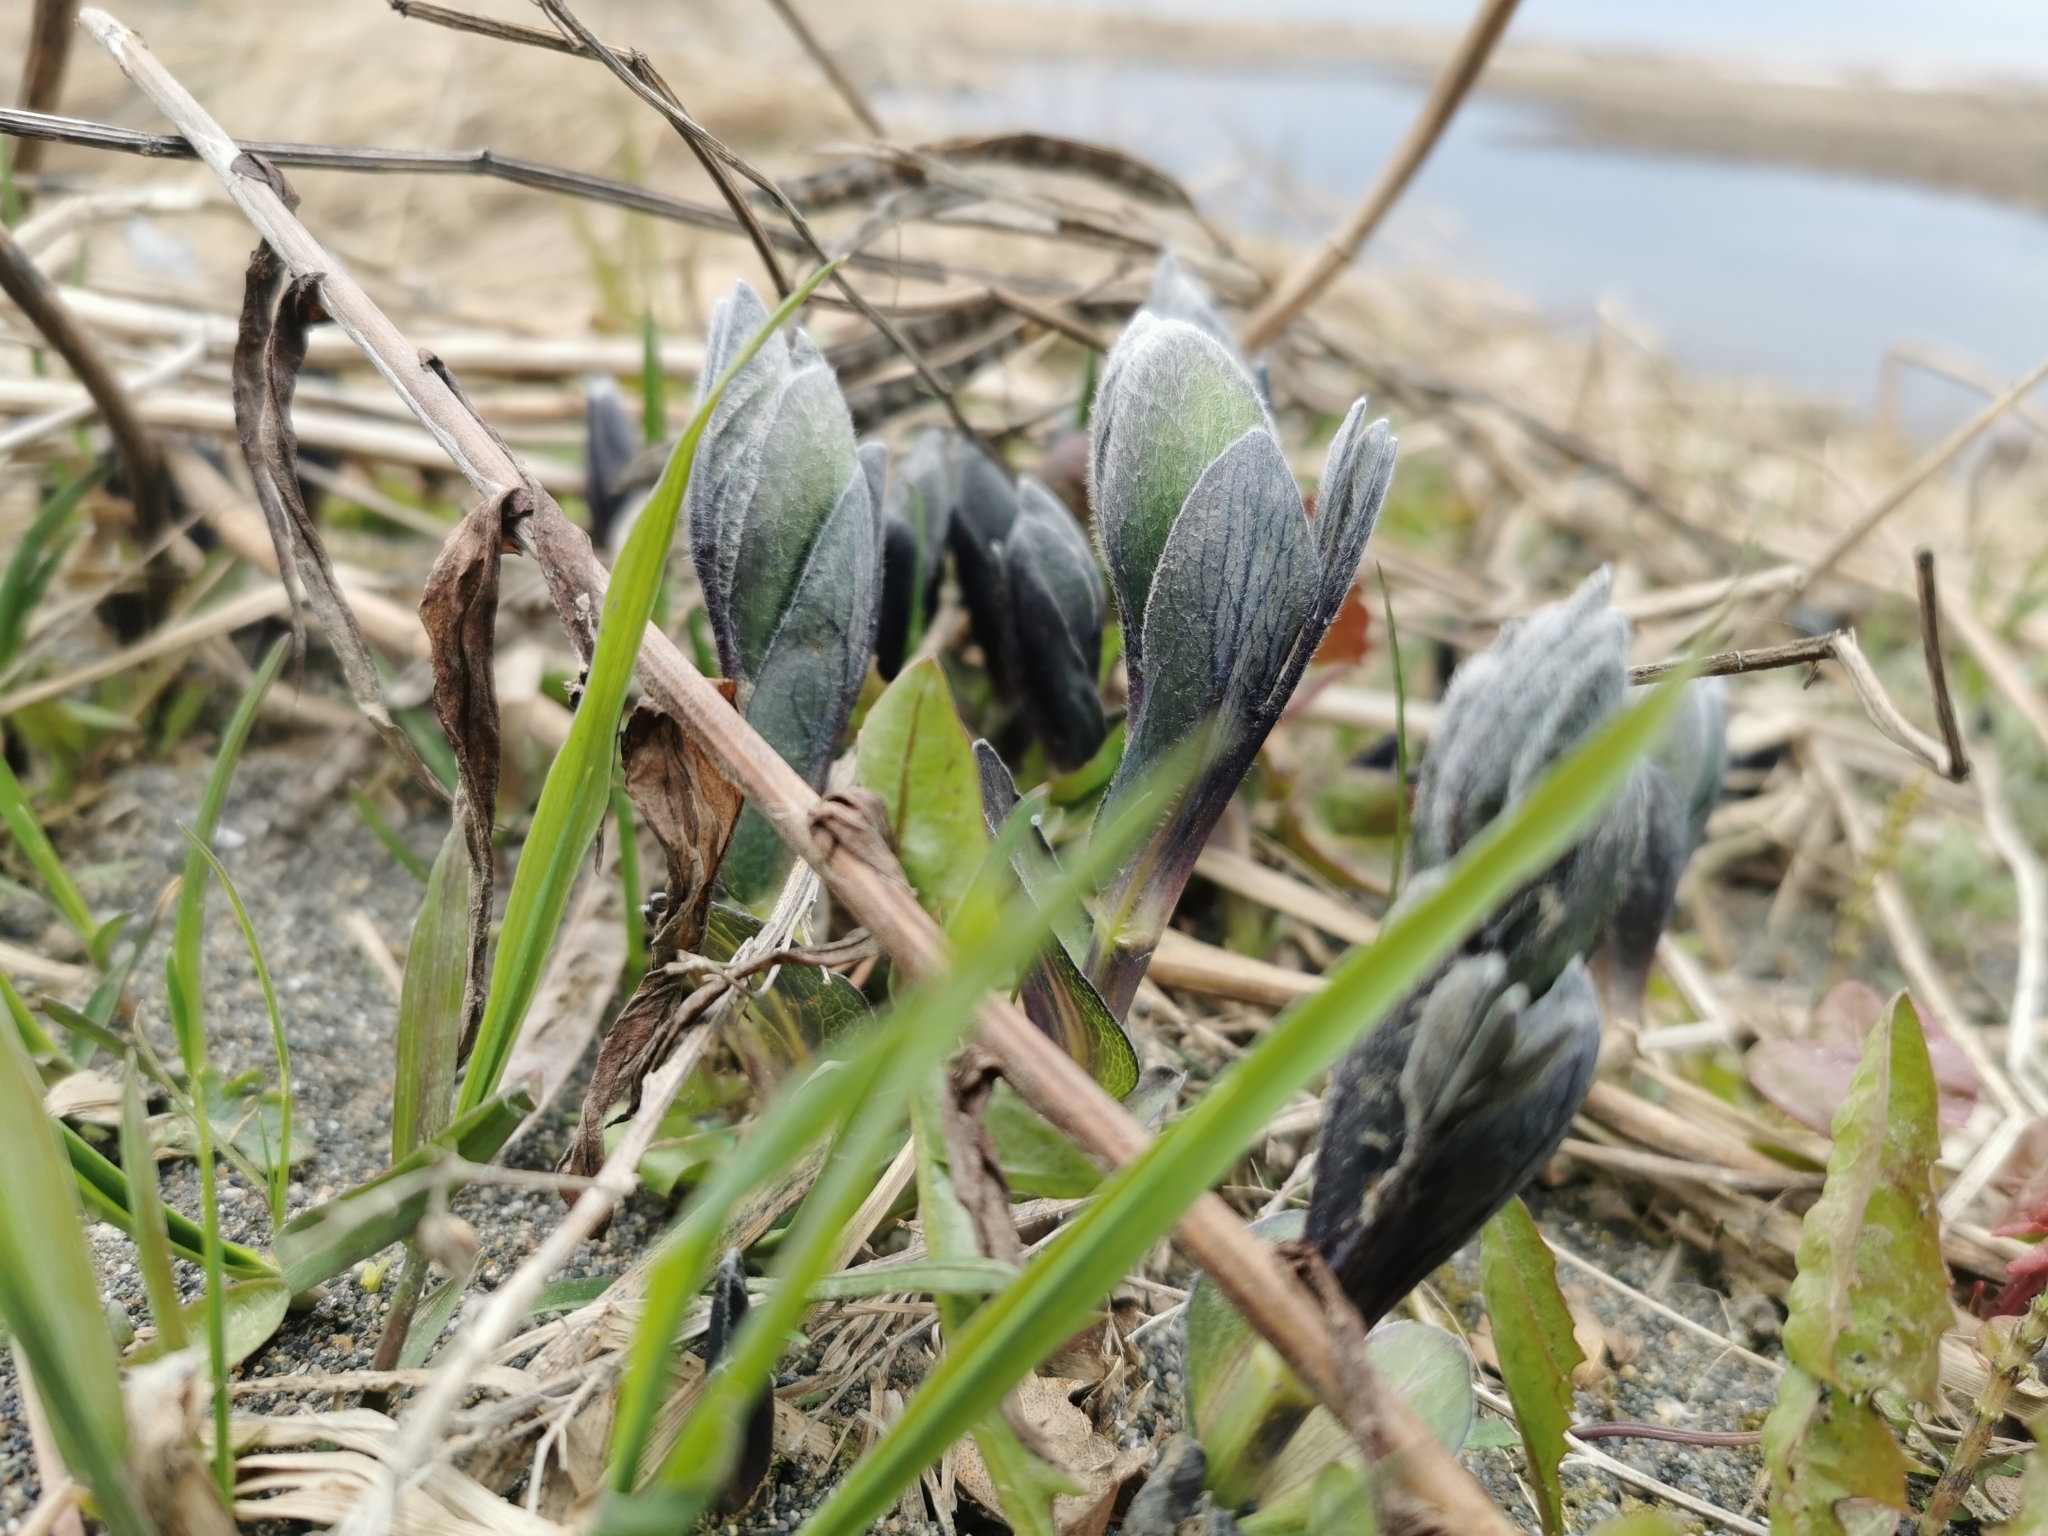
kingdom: Plantae
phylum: Tracheophyta
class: Magnoliopsida
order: Apiales
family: Apiaceae
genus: Ligusticum
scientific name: Ligusticum scothicum
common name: Beach lovage
